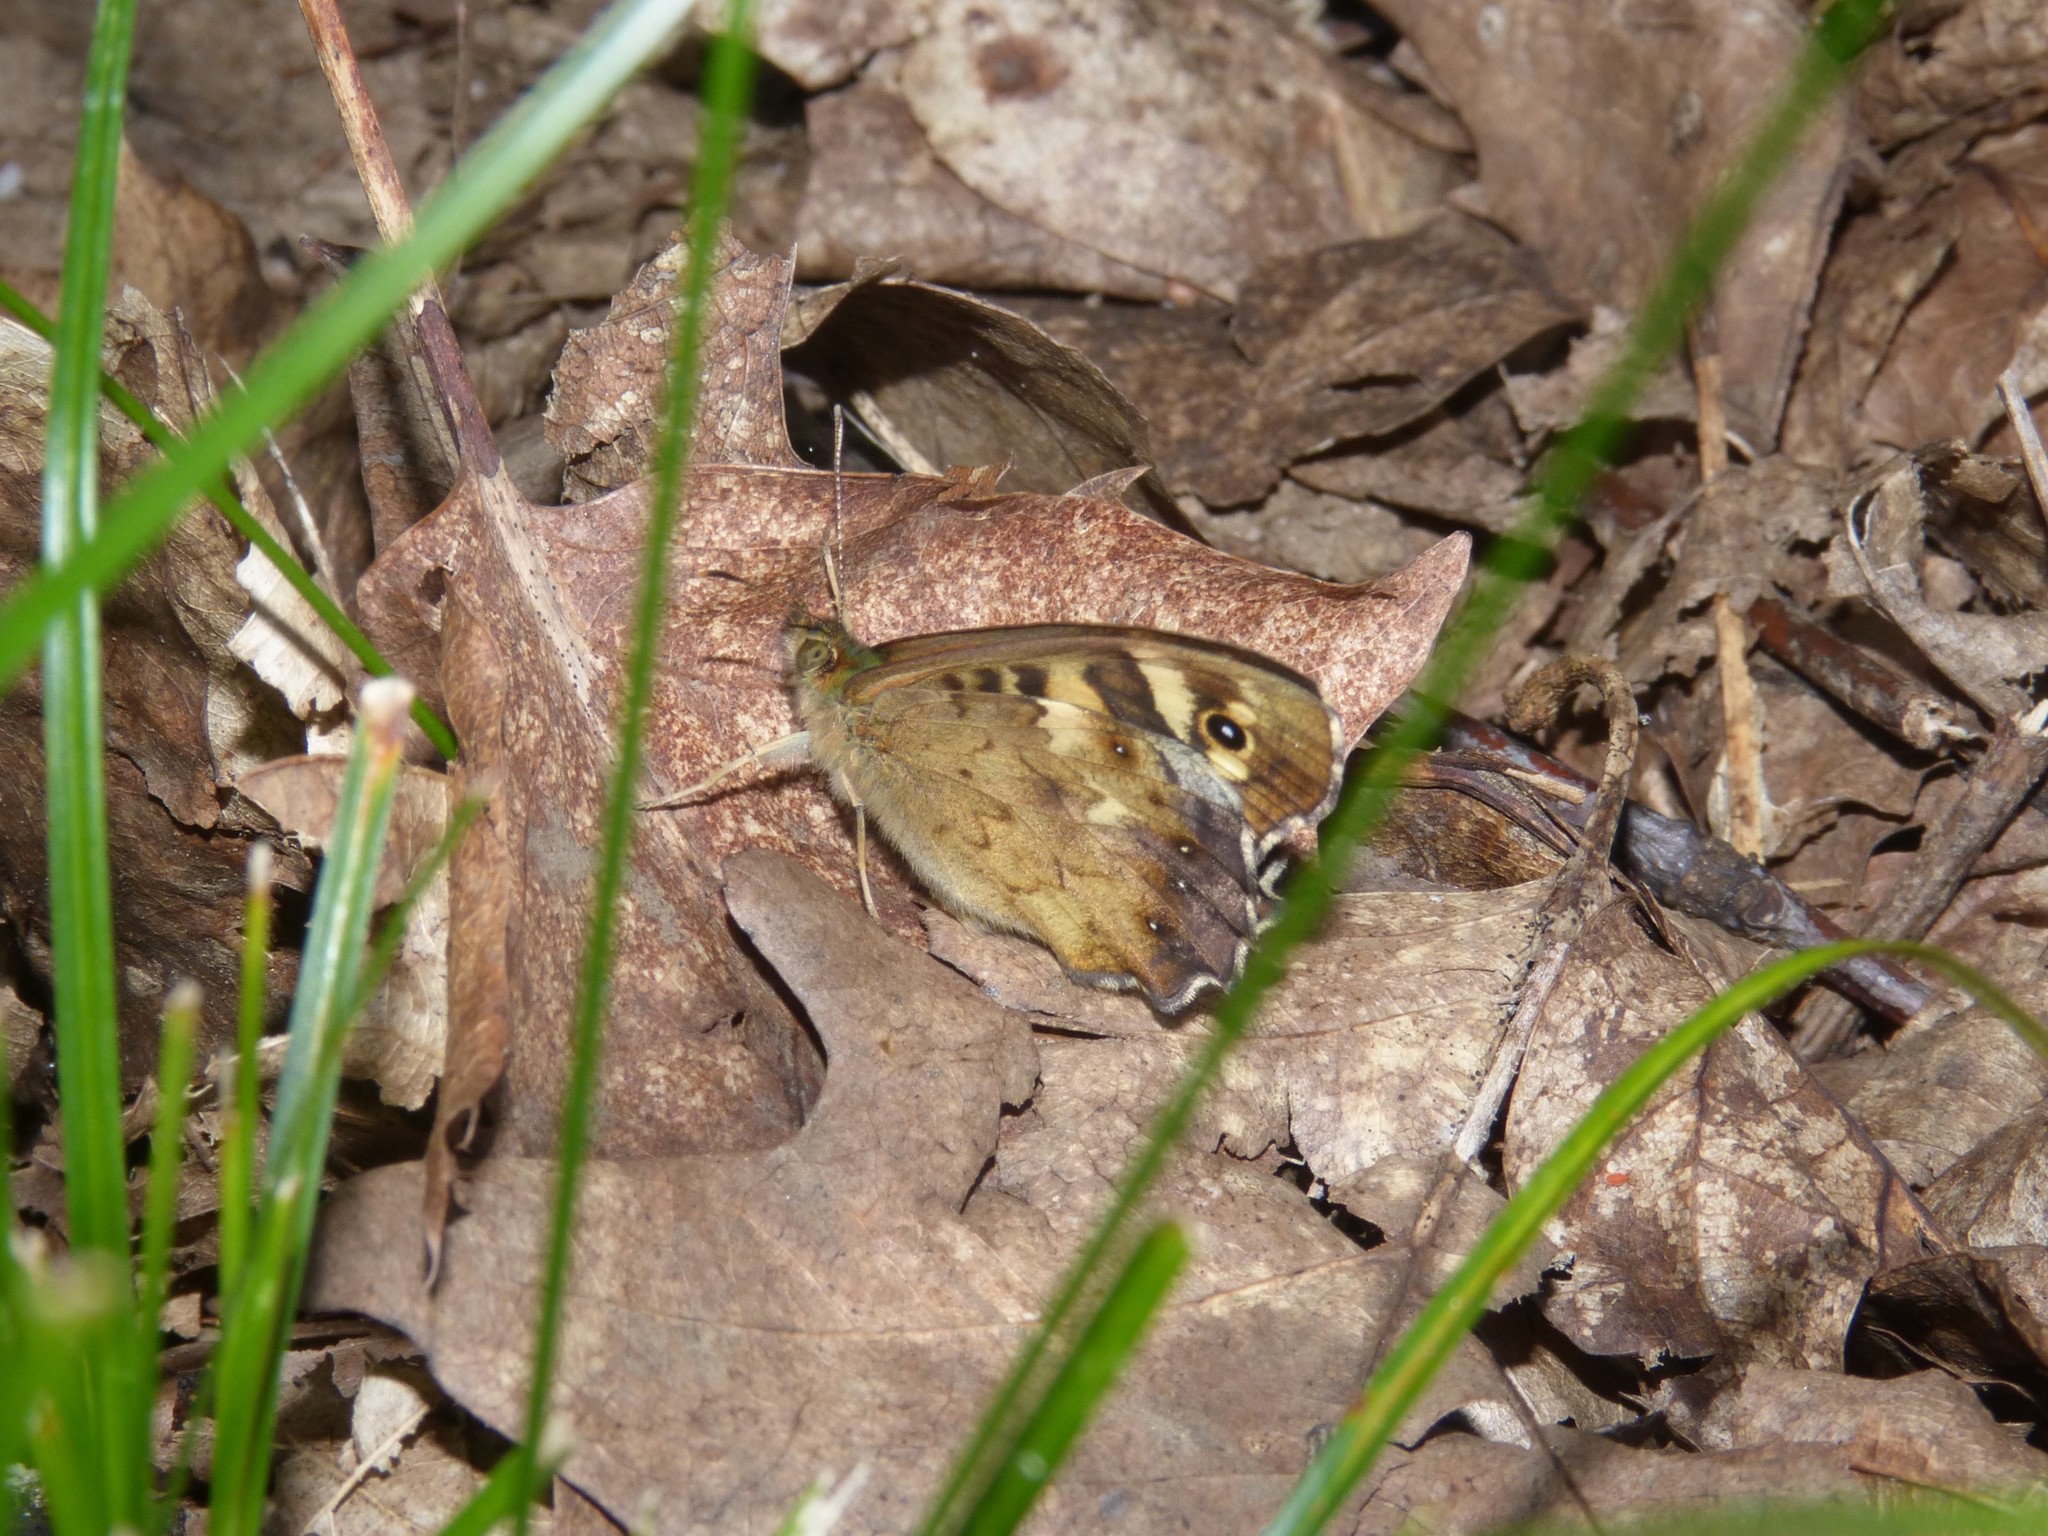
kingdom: Animalia
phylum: Arthropoda
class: Insecta
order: Lepidoptera
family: Nymphalidae
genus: Pararge
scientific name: Pararge aegeria
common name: Speckled wood
